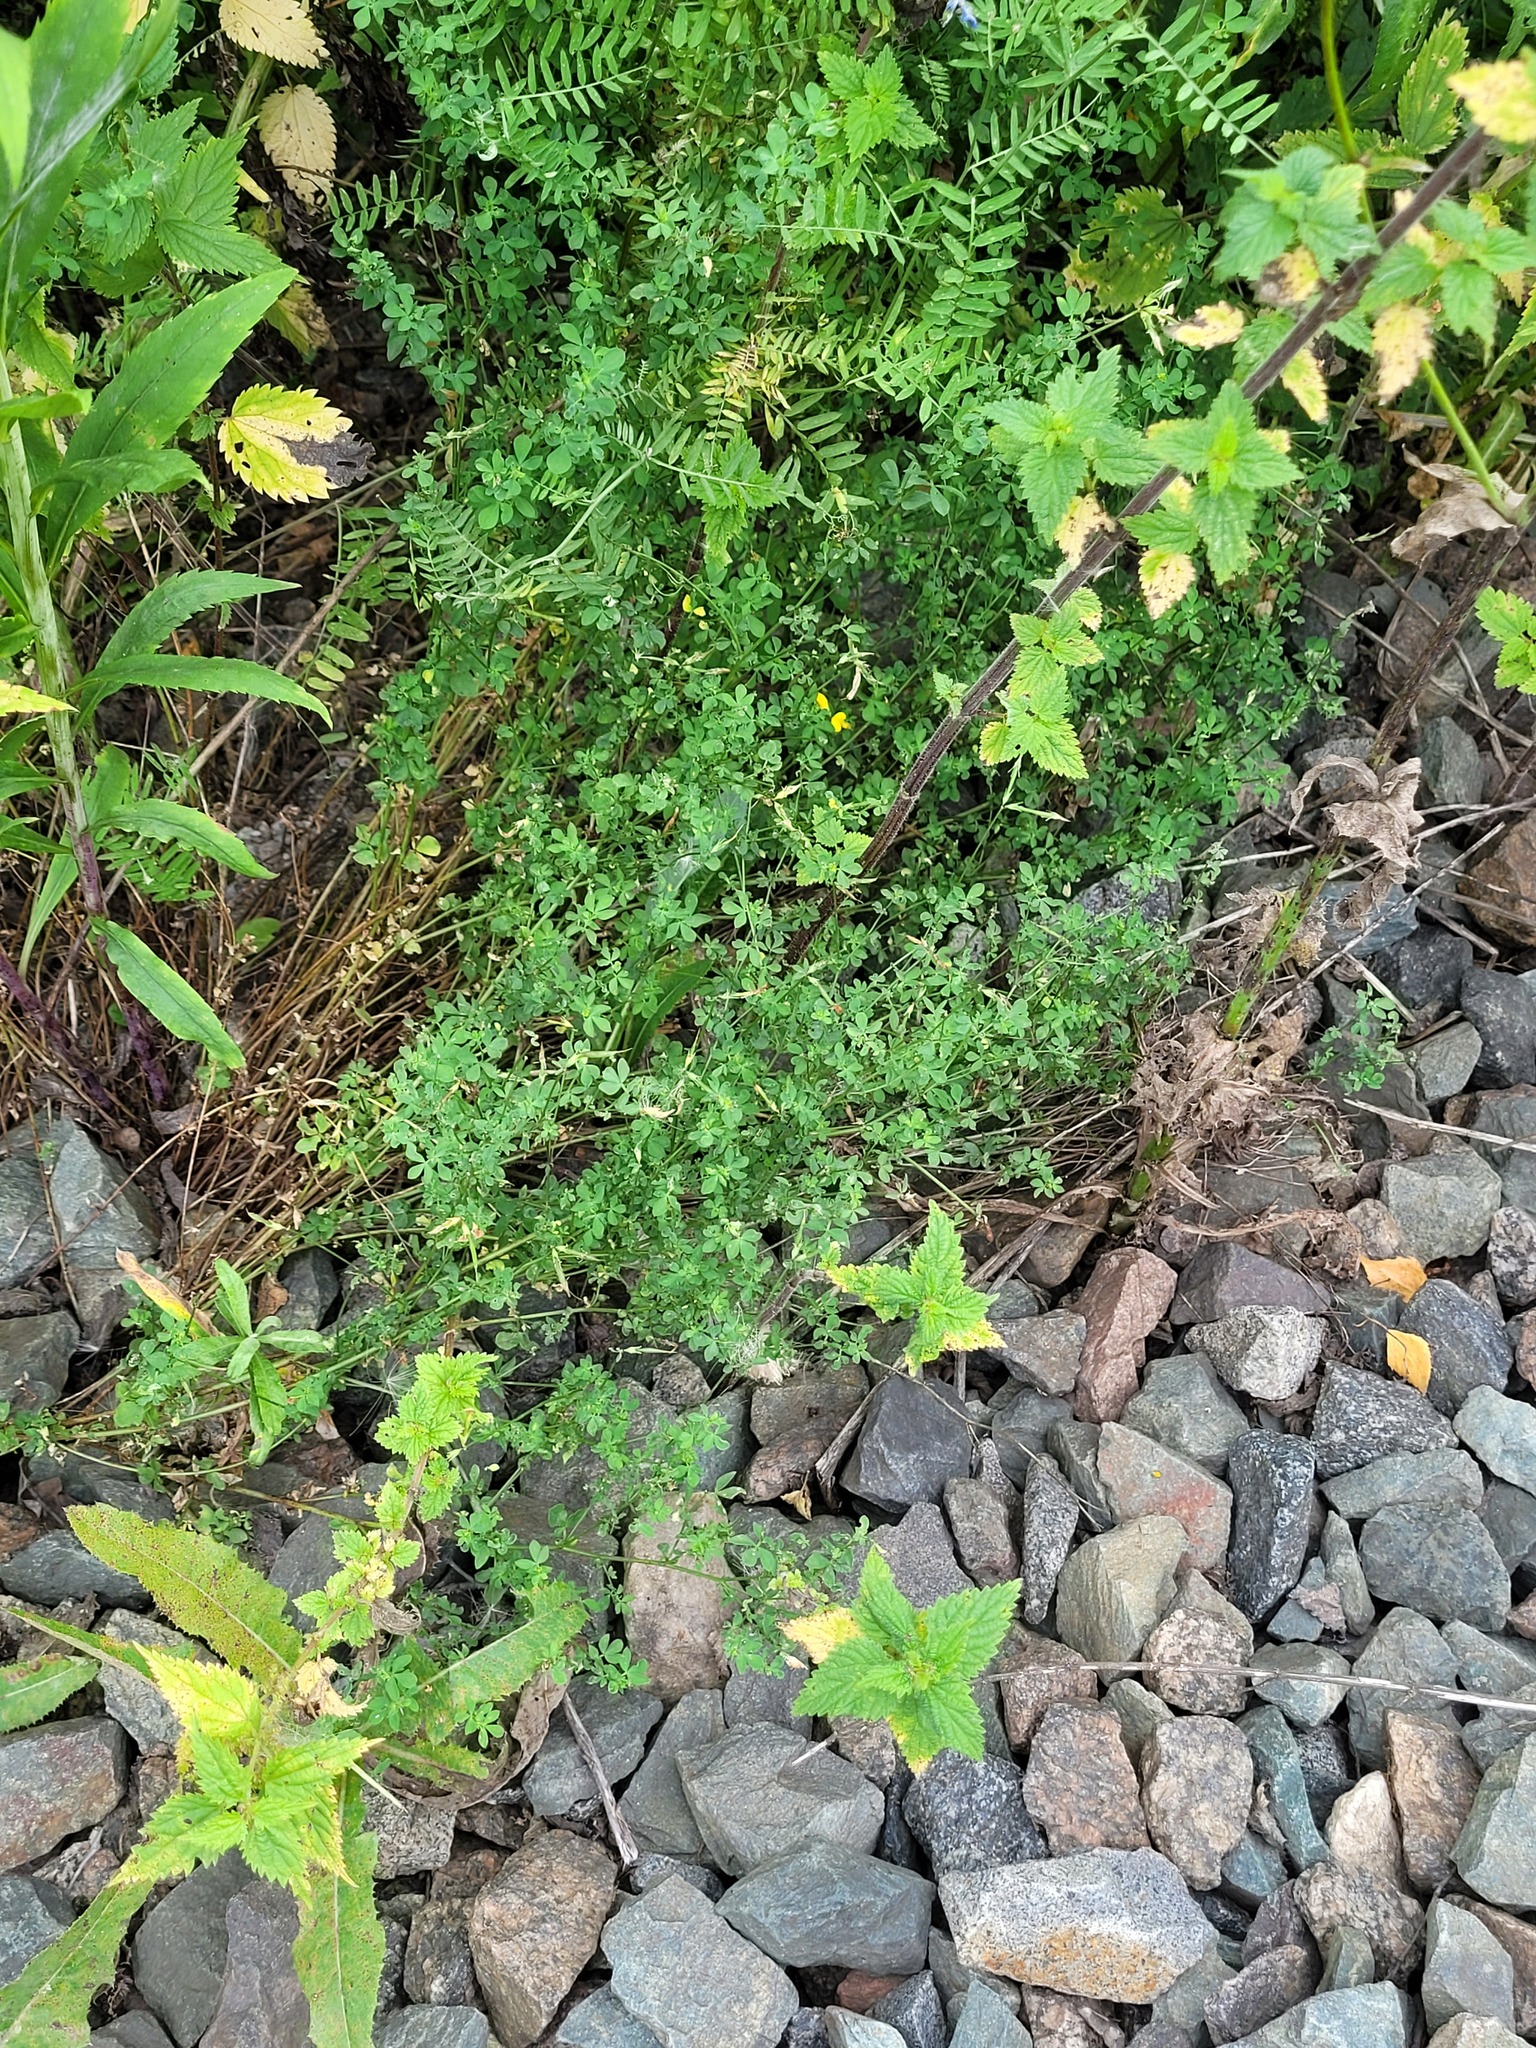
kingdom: Plantae
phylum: Tracheophyta
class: Magnoliopsida
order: Fabales
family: Fabaceae
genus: Lotus
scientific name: Lotus corniculatus
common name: Common bird's-foot-trefoil
